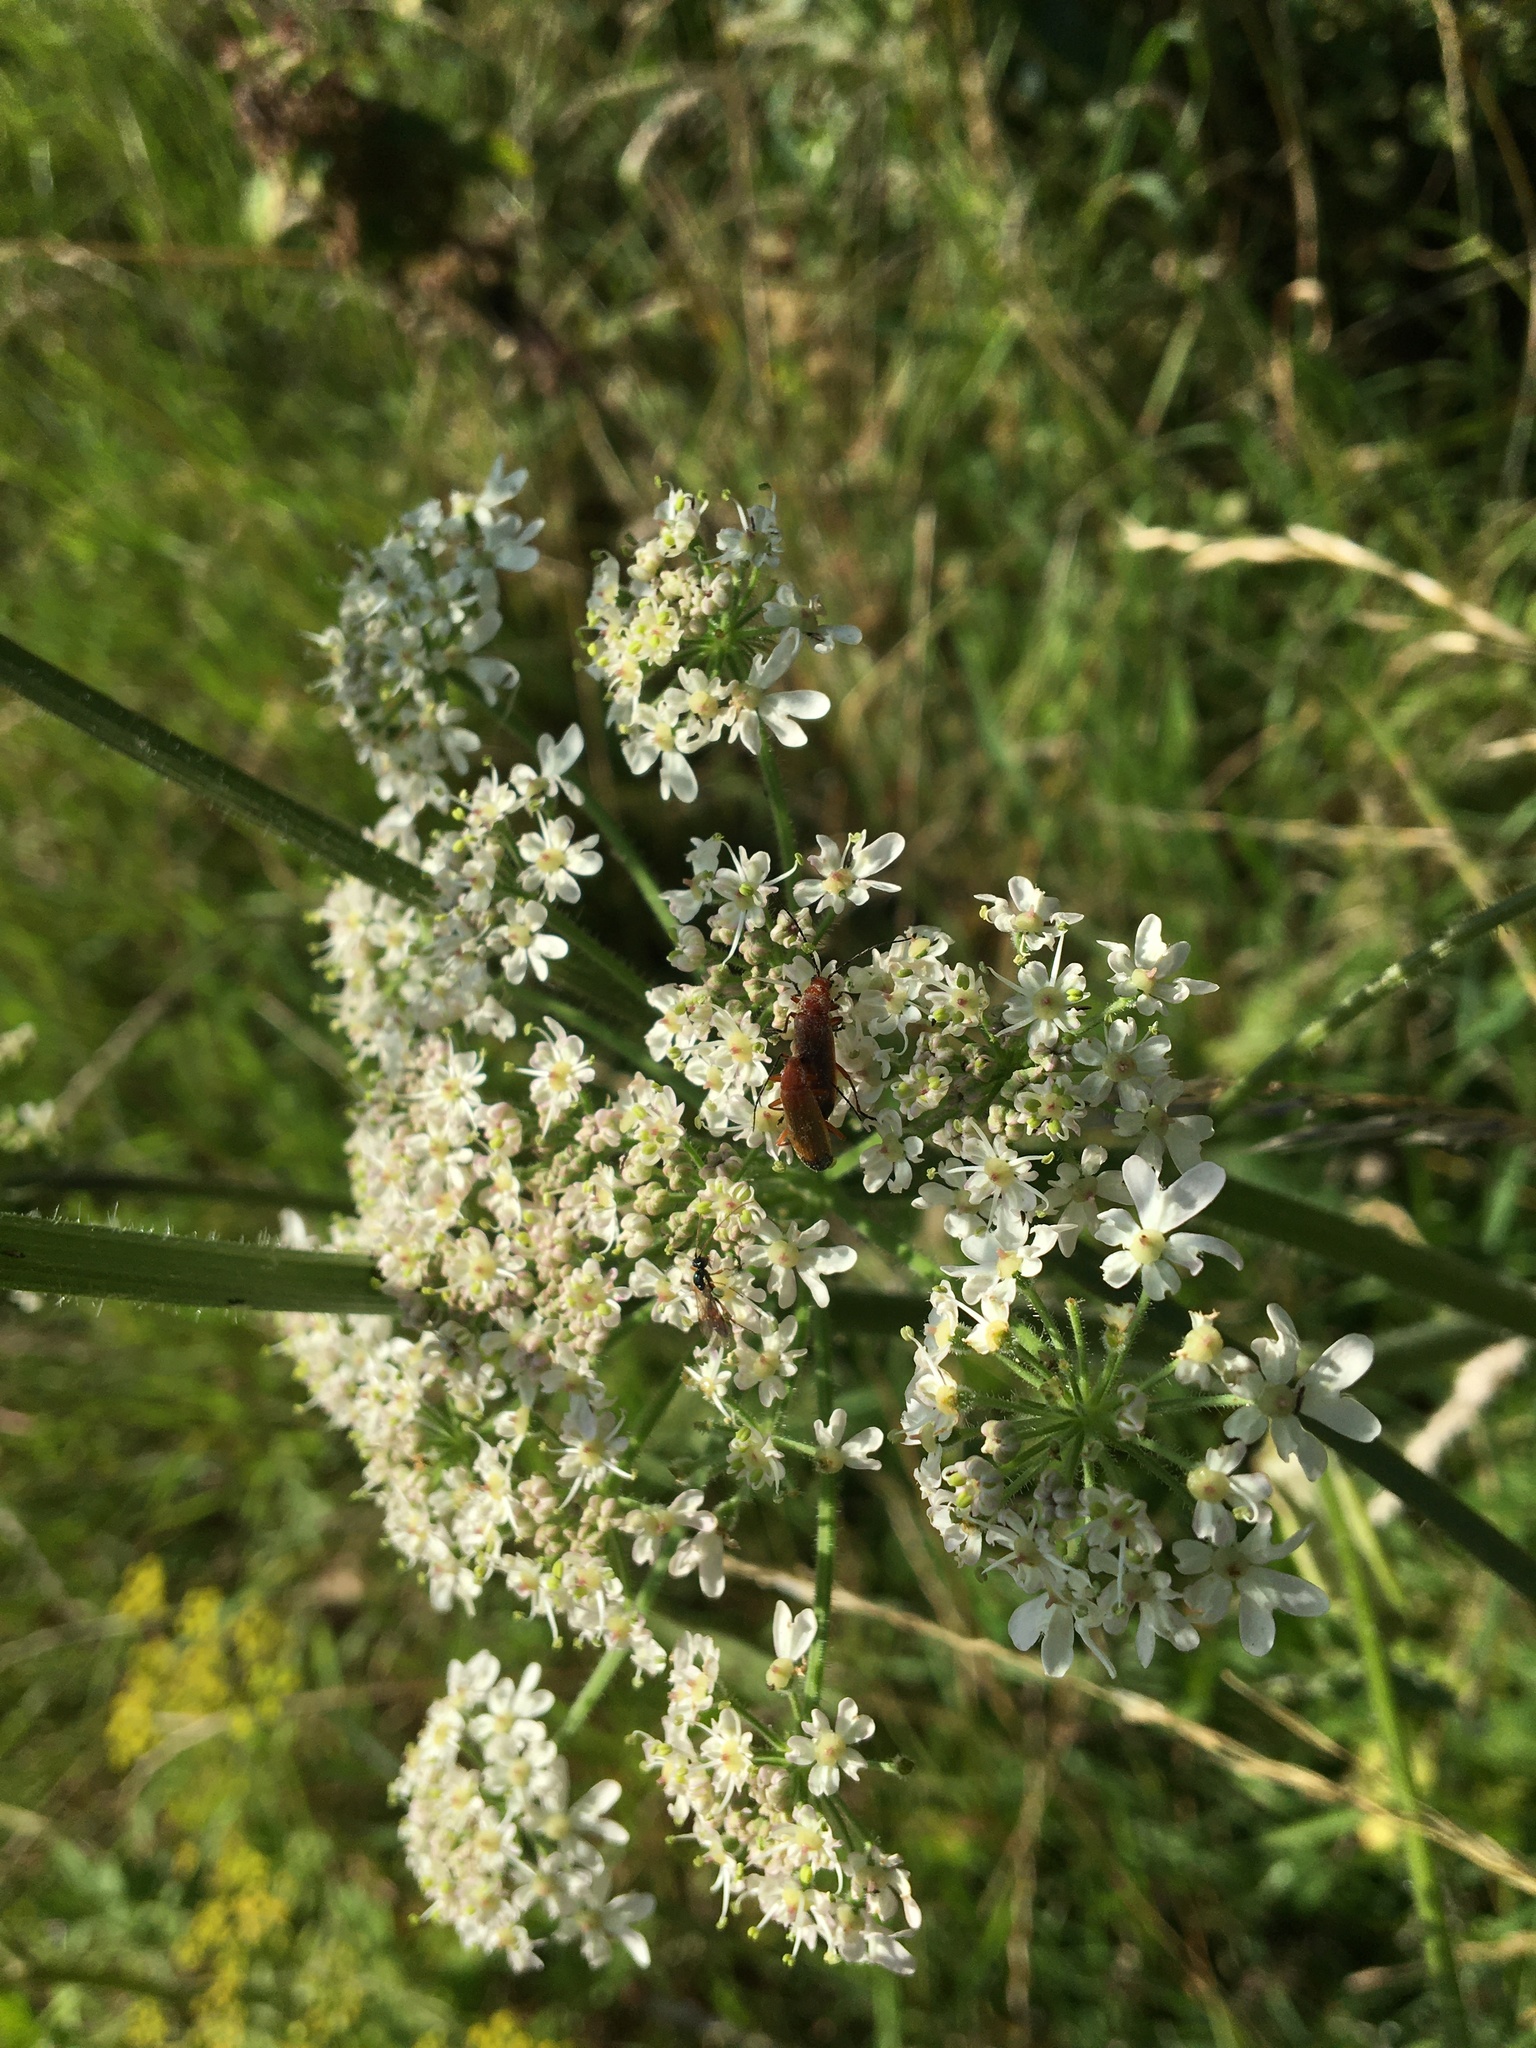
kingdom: Animalia
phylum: Arthropoda
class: Insecta
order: Coleoptera
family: Cantharidae
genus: Rhagonycha
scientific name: Rhagonycha fulva
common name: Common red soldier beetle
